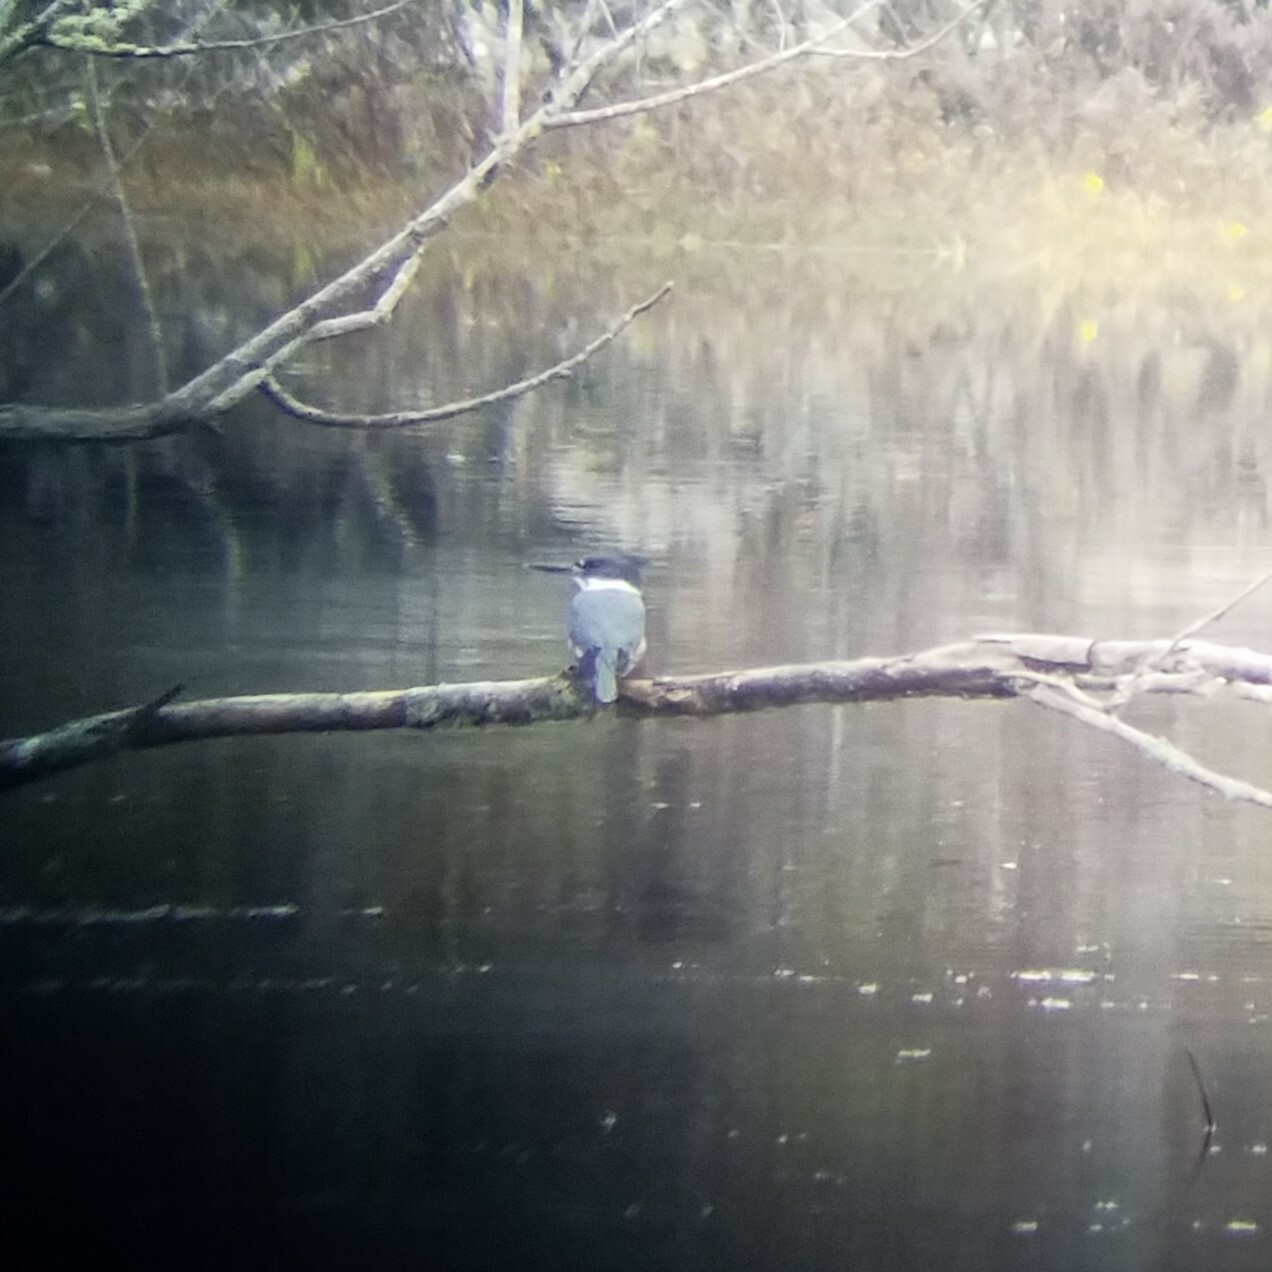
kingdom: Animalia
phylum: Chordata
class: Aves
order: Coraciiformes
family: Alcedinidae
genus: Megaceryle
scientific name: Megaceryle alcyon
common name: Belted kingfisher
